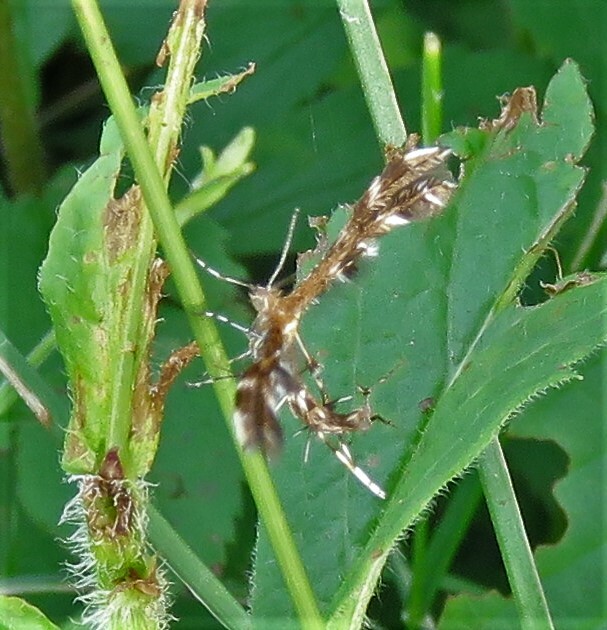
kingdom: Animalia
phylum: Arthropoda
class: Insecta
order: Lepidoptera
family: Pterophoridae
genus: Dejongia
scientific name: Dejongia lobidactylus
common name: Lobed plume moth
